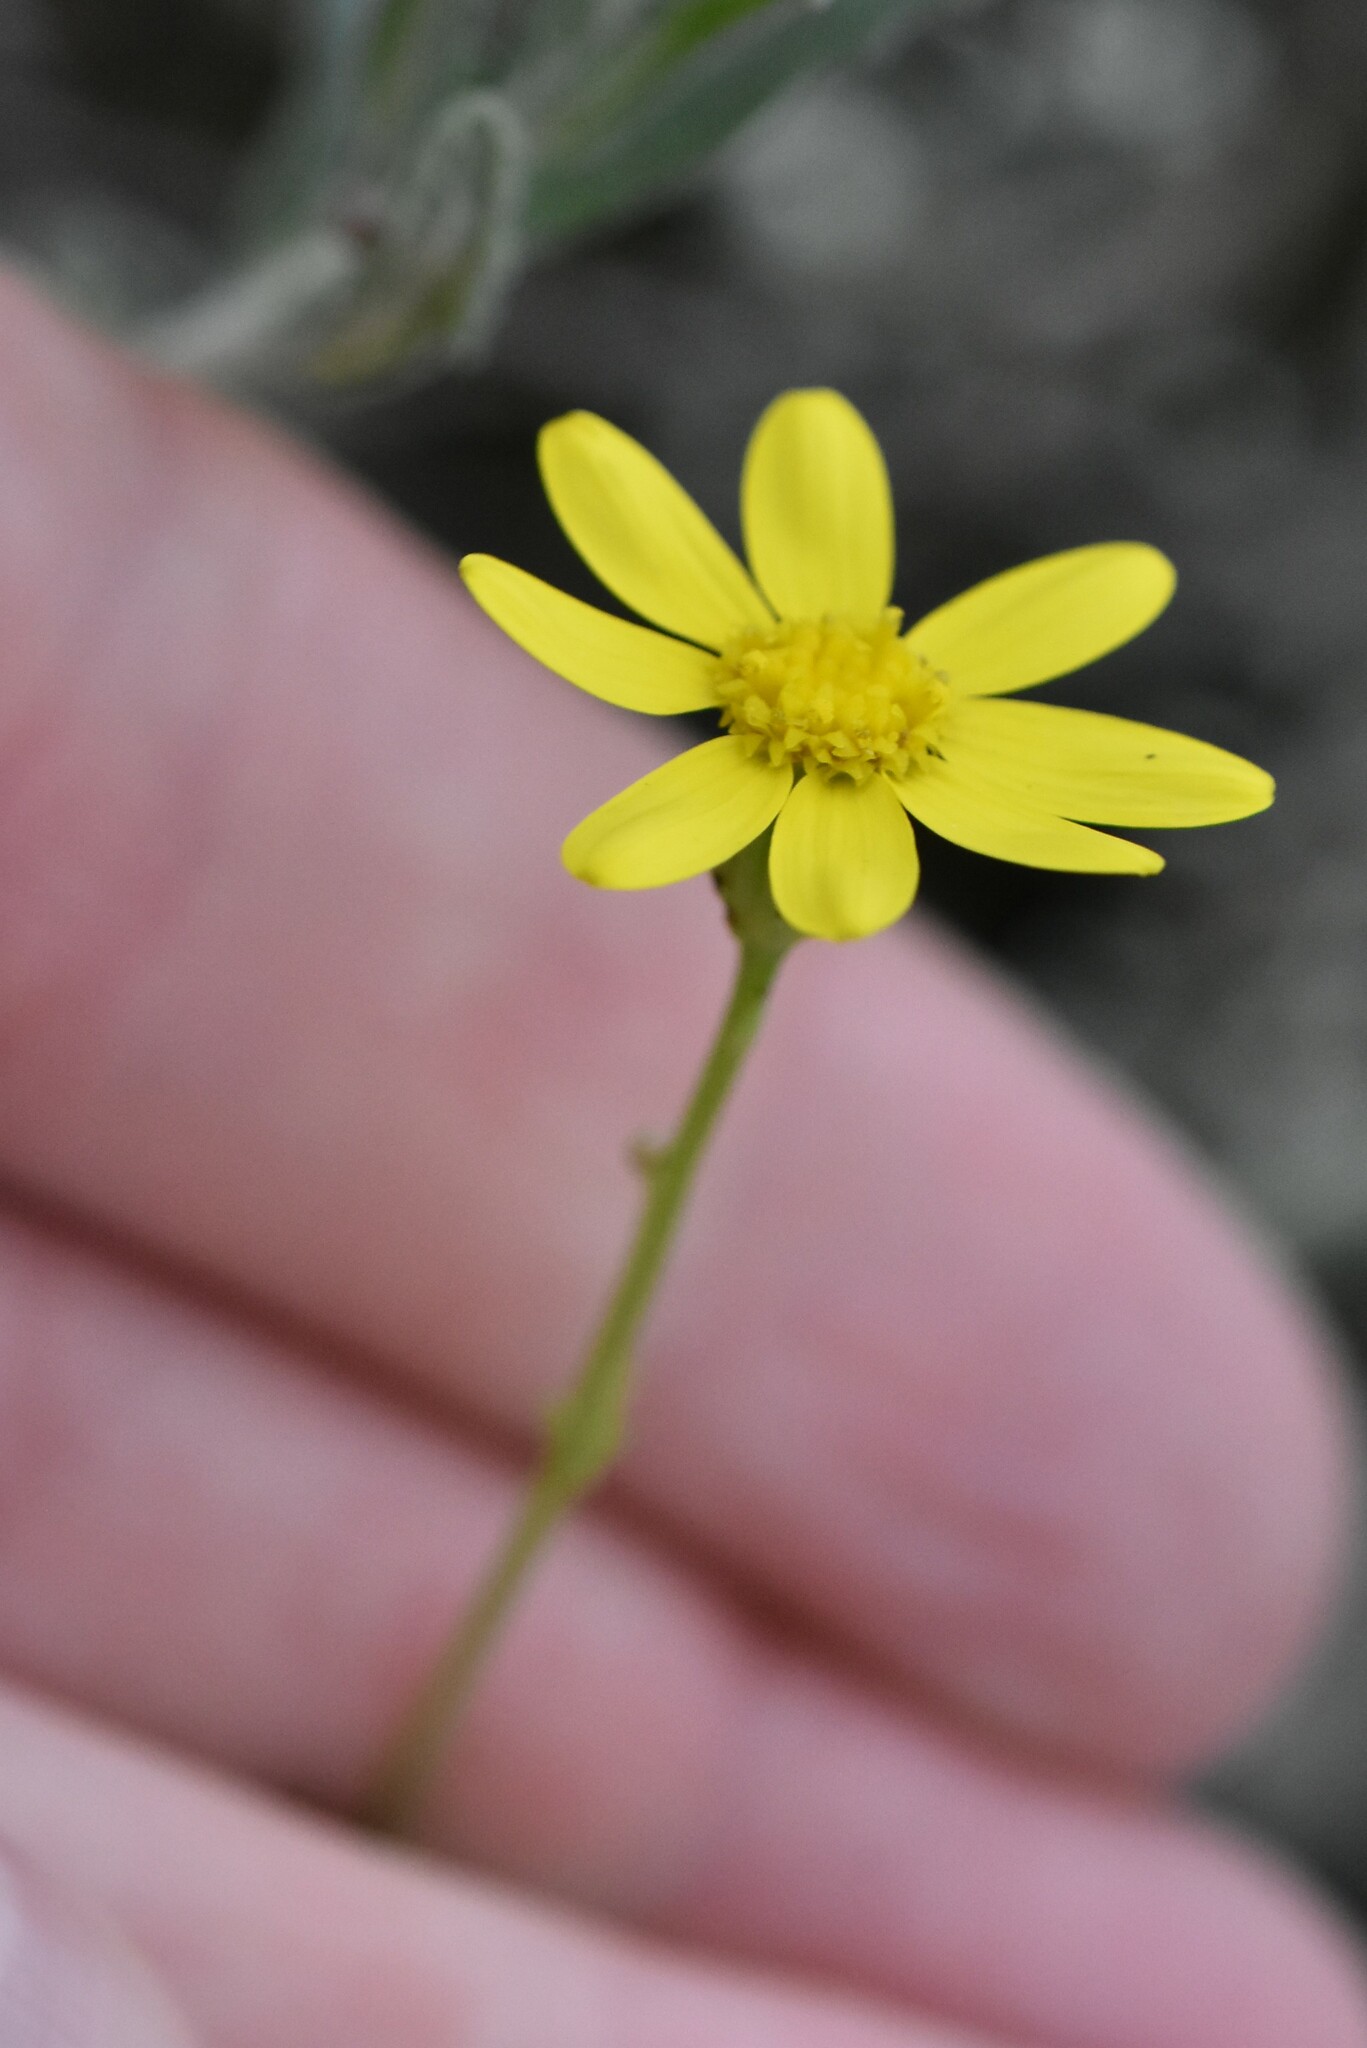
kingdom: Plantae
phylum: Tracheophyta
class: Magnoliopsida
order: Asterales
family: Asteraceae
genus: Senecio
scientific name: Senecio vernalis
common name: Eastern groundsel
